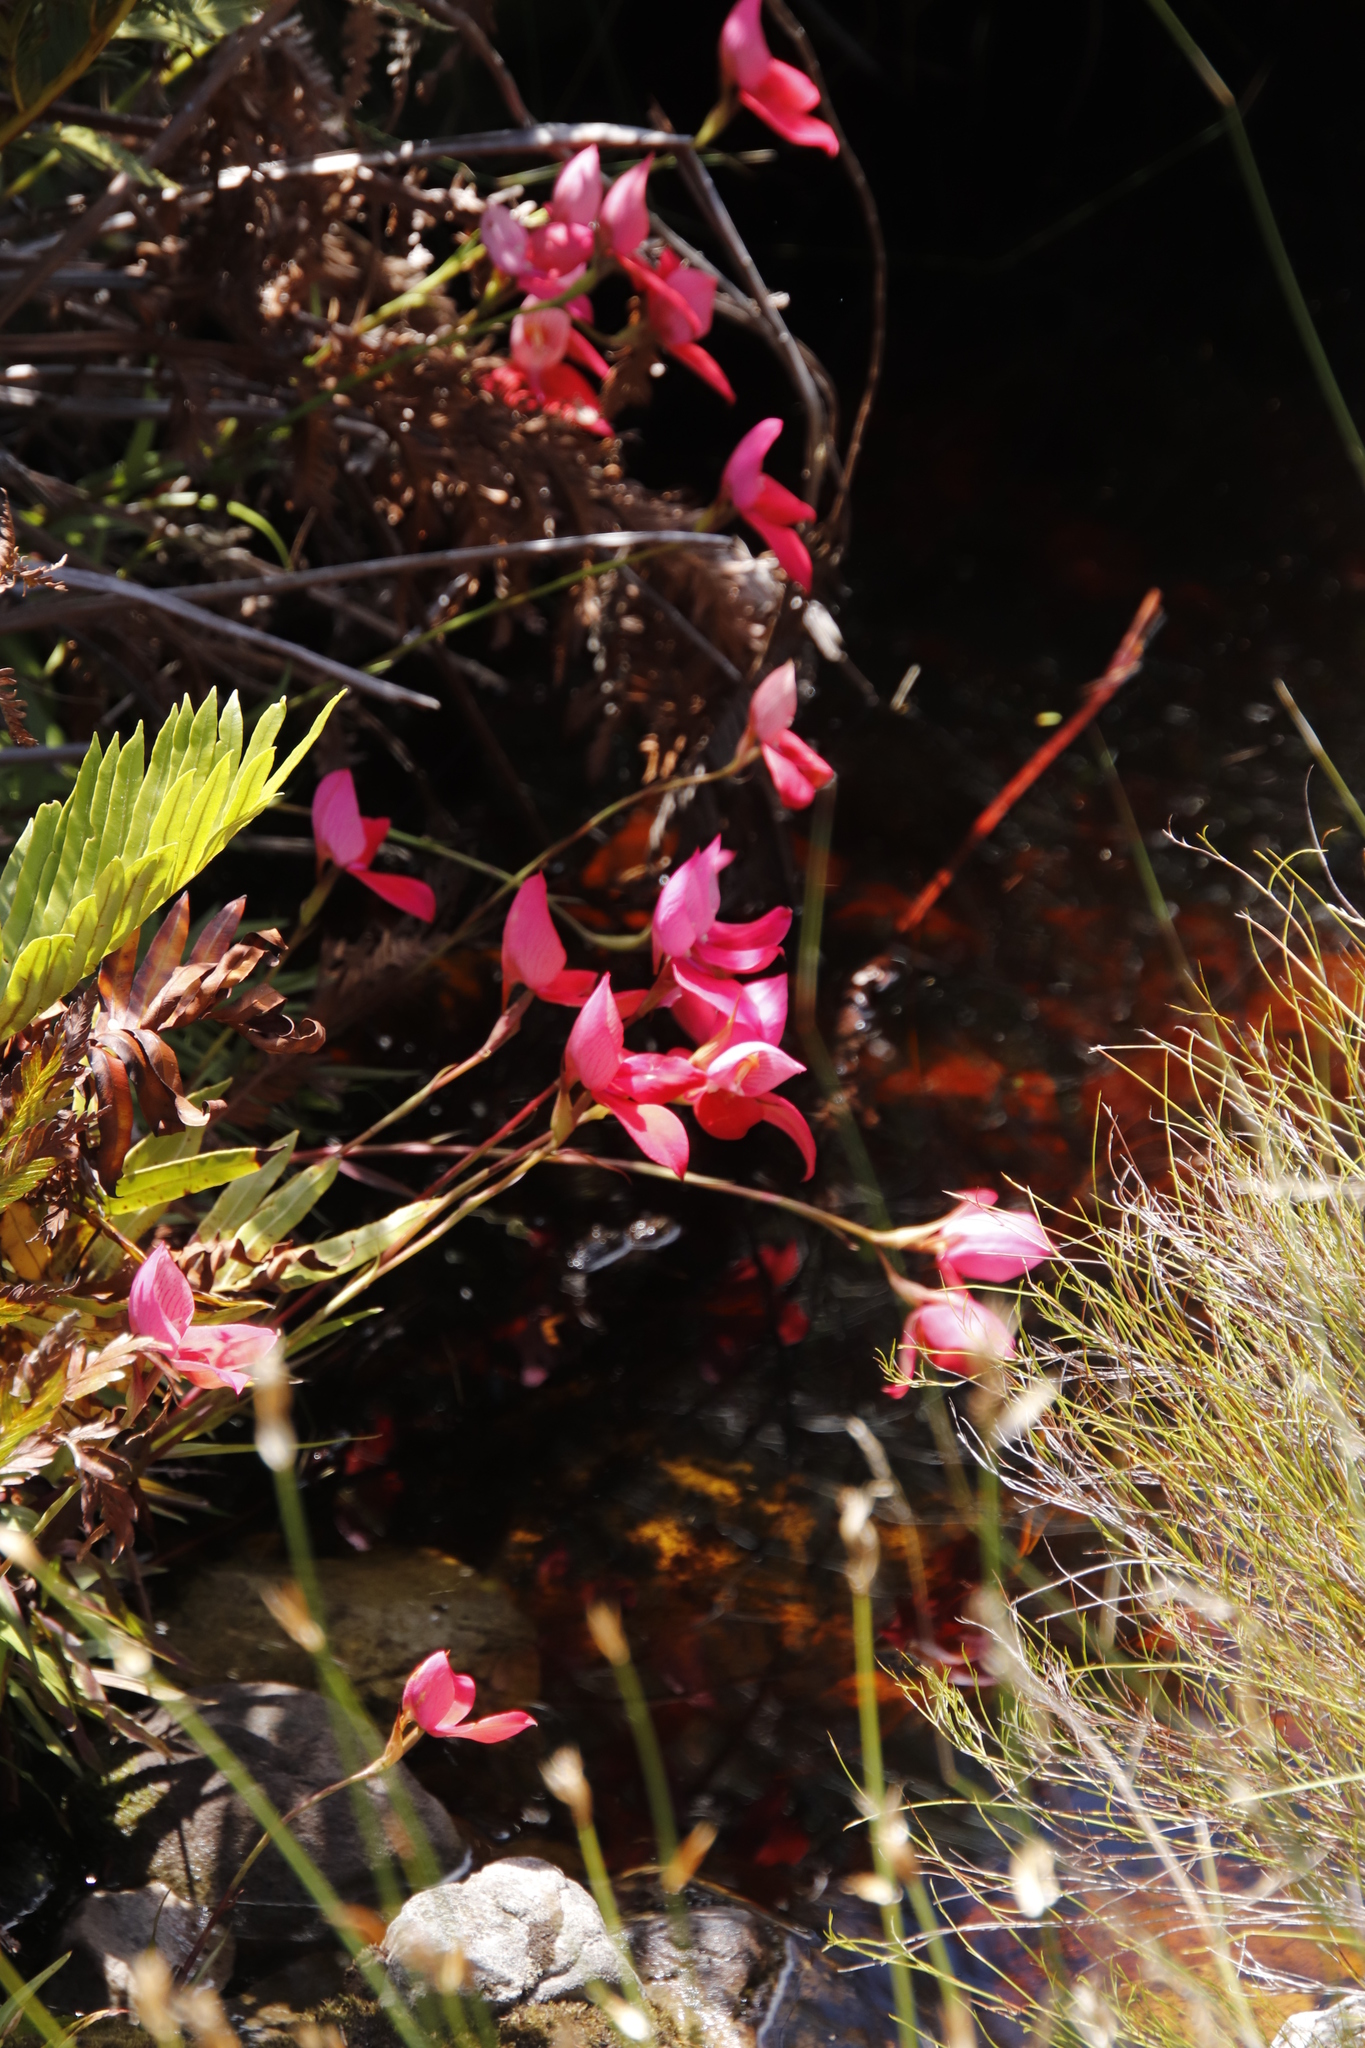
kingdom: Plantae
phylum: Tracheophyta
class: Liliopsida
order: Asparagales
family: Orchidaceae
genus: Disa
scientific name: Disa uniflora
